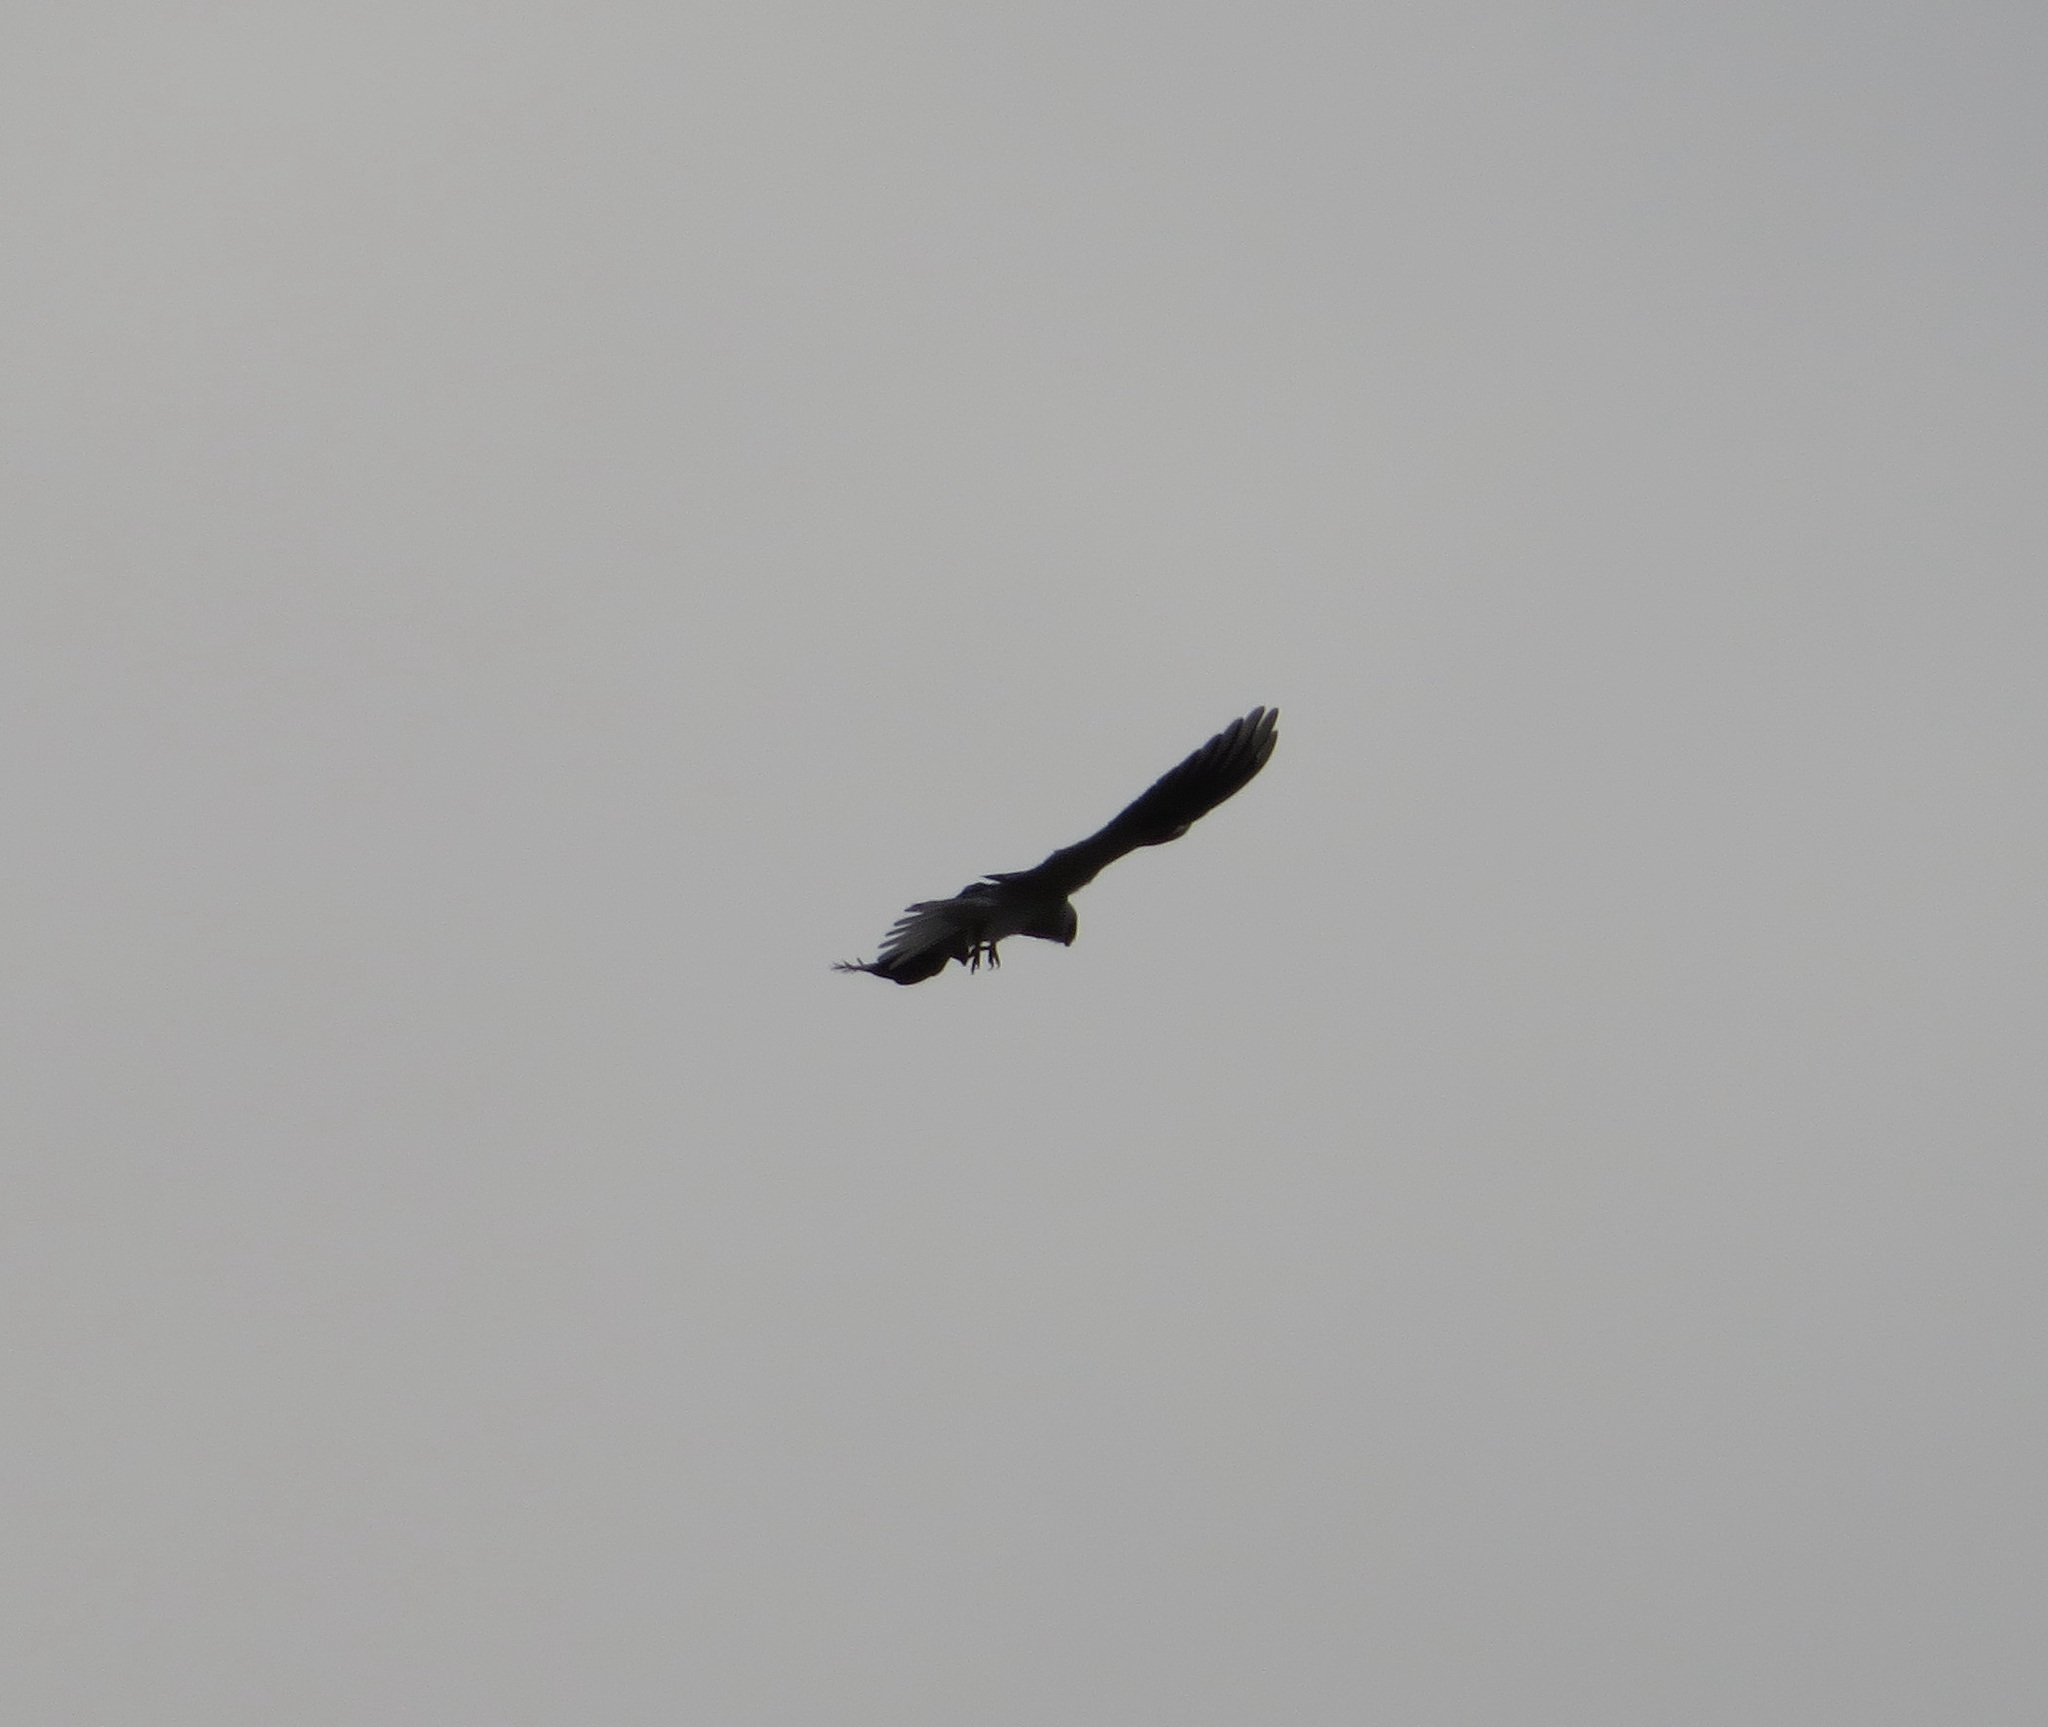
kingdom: Animalia
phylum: Chordata
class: Aves
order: Accipitriformes
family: Accipitridae
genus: Elanus
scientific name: Elanus leucurus
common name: White-tailed kite
